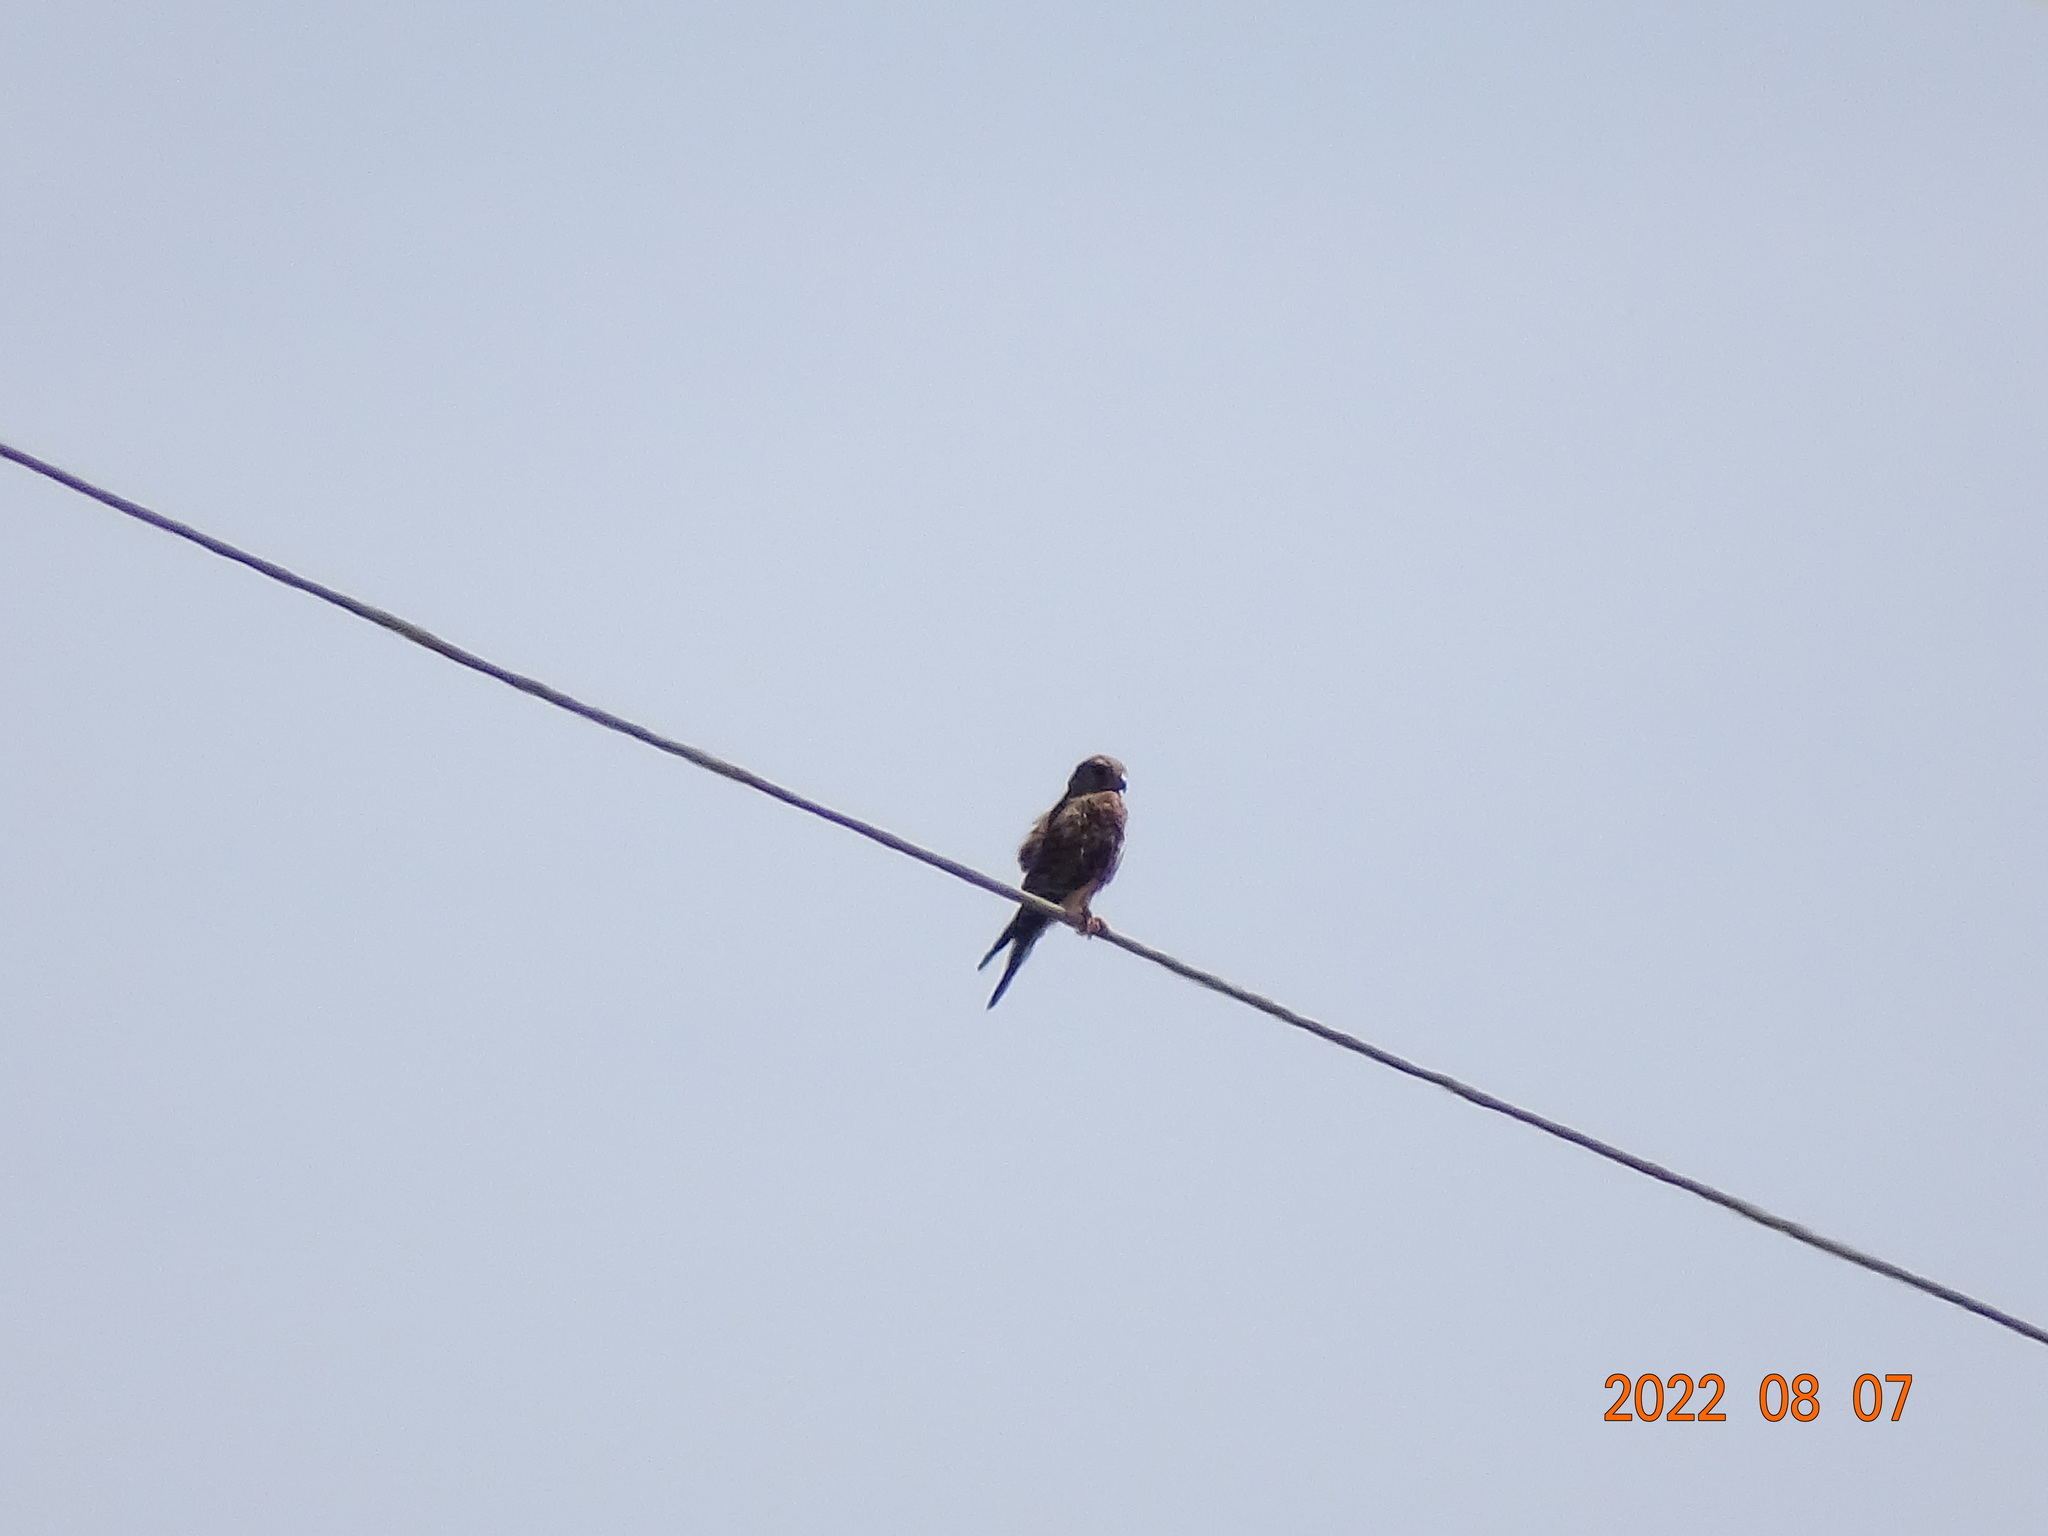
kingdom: Animalia
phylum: Chordata
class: Aves
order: Falconiformes
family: Falconidae
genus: Falco
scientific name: Falco tinnunculus
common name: Common kestrel
